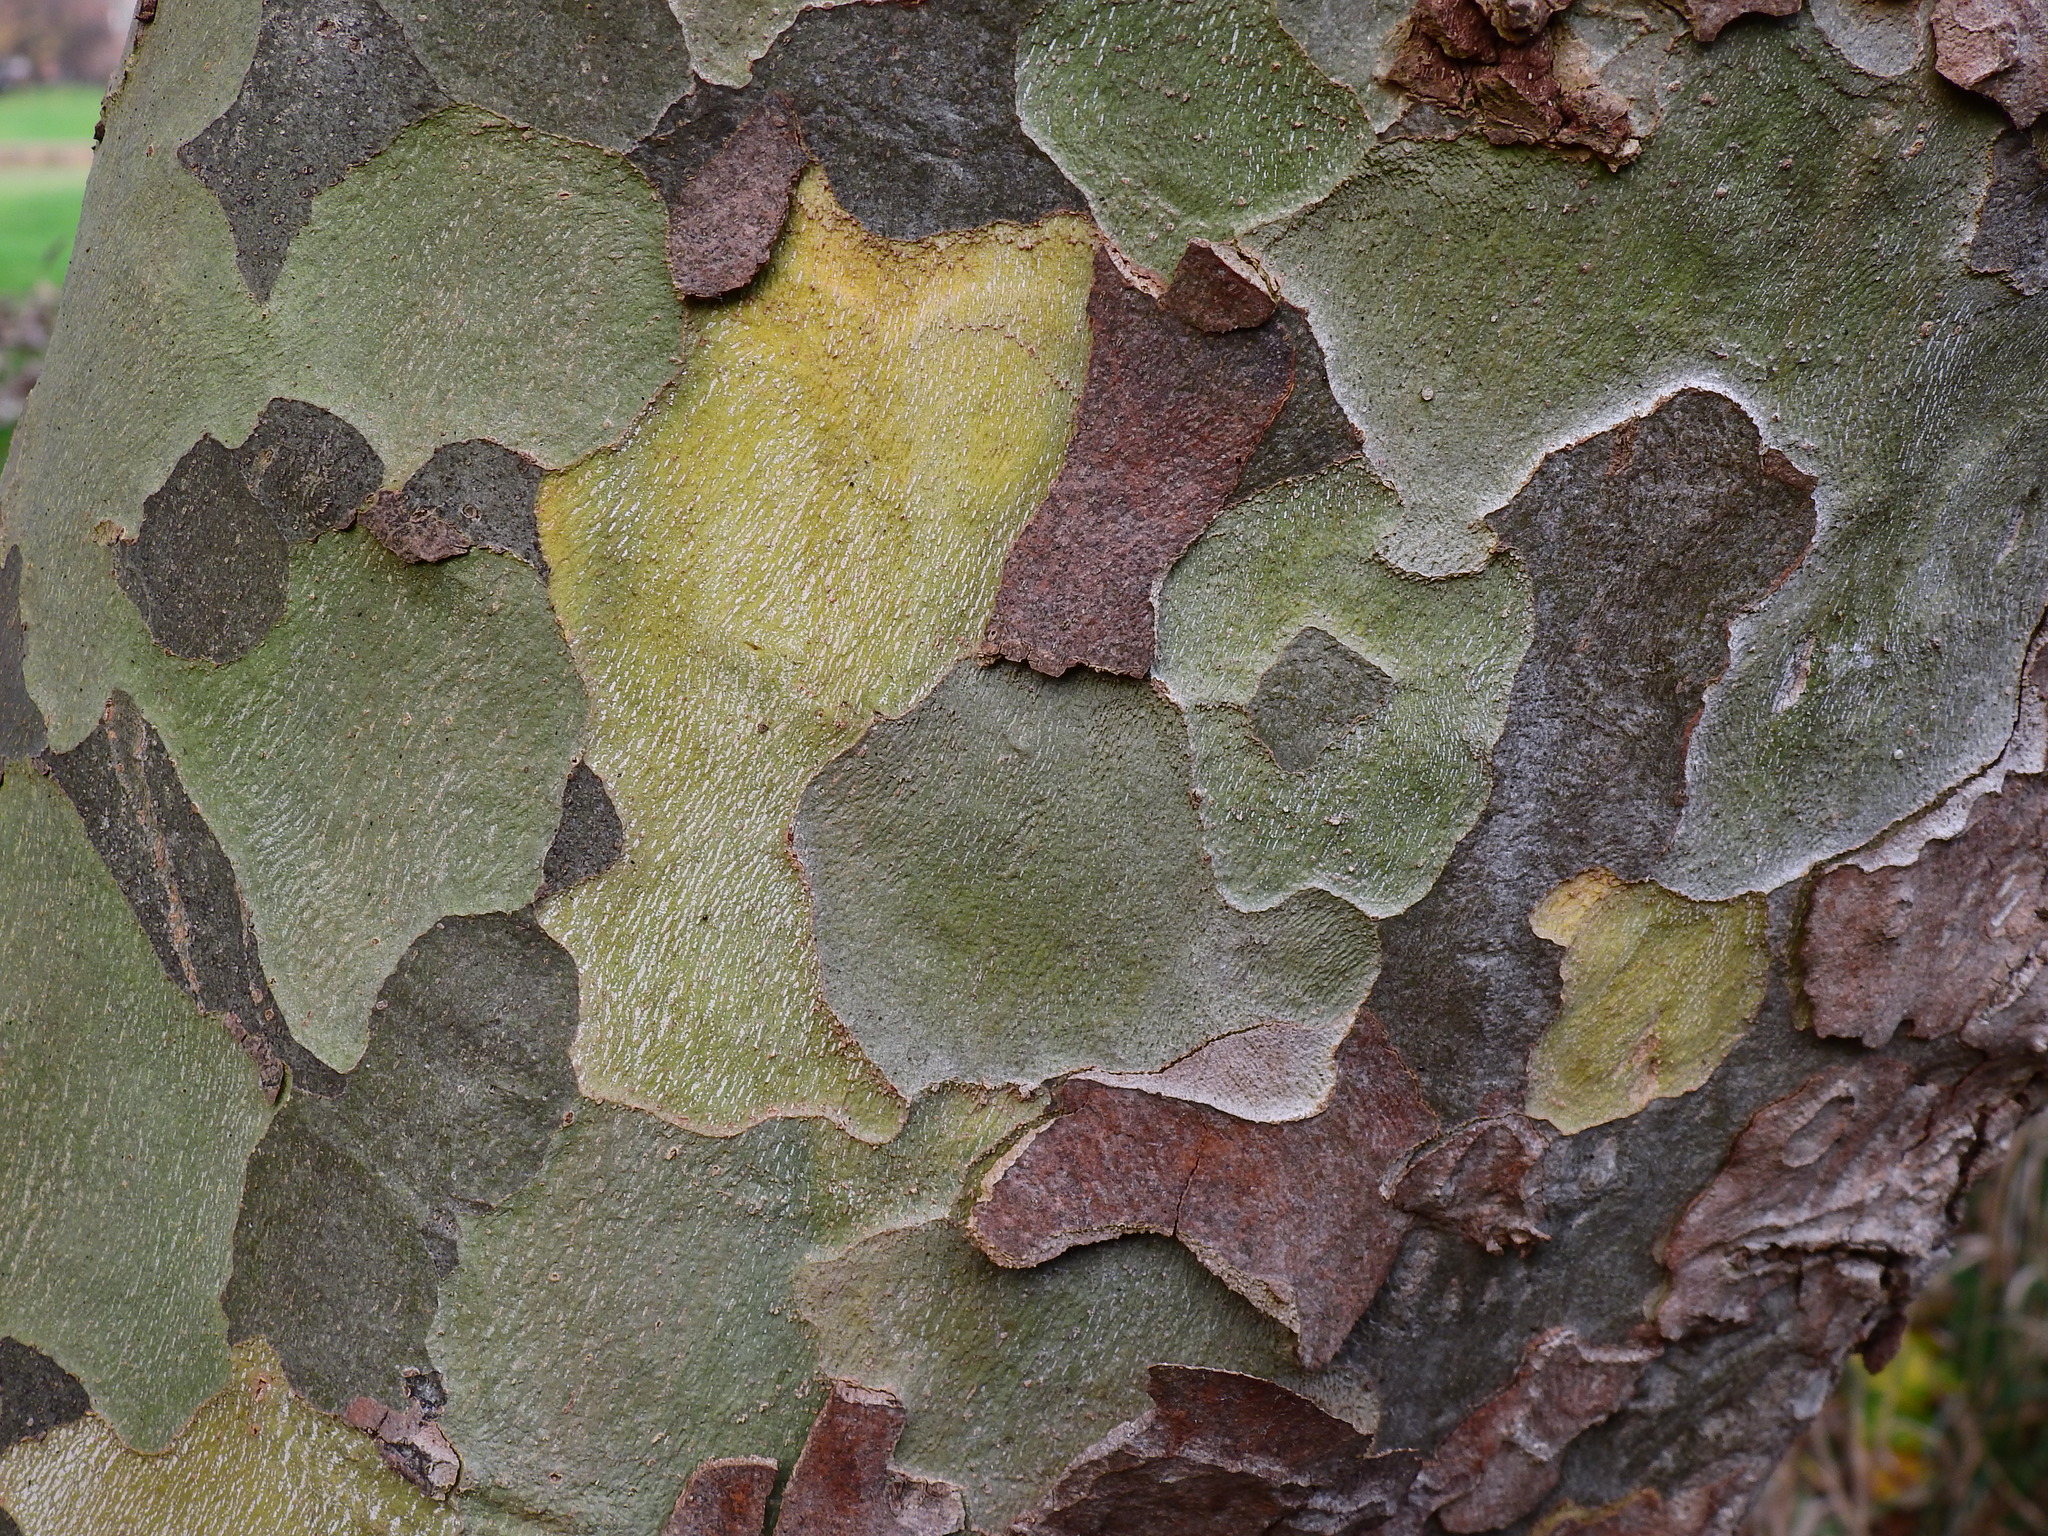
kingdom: Plantae
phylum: Tracheophyta
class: Magnoliopsida
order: Proteales
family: Platanaceae
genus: Platanus
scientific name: Platanus hispanica
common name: London plane
